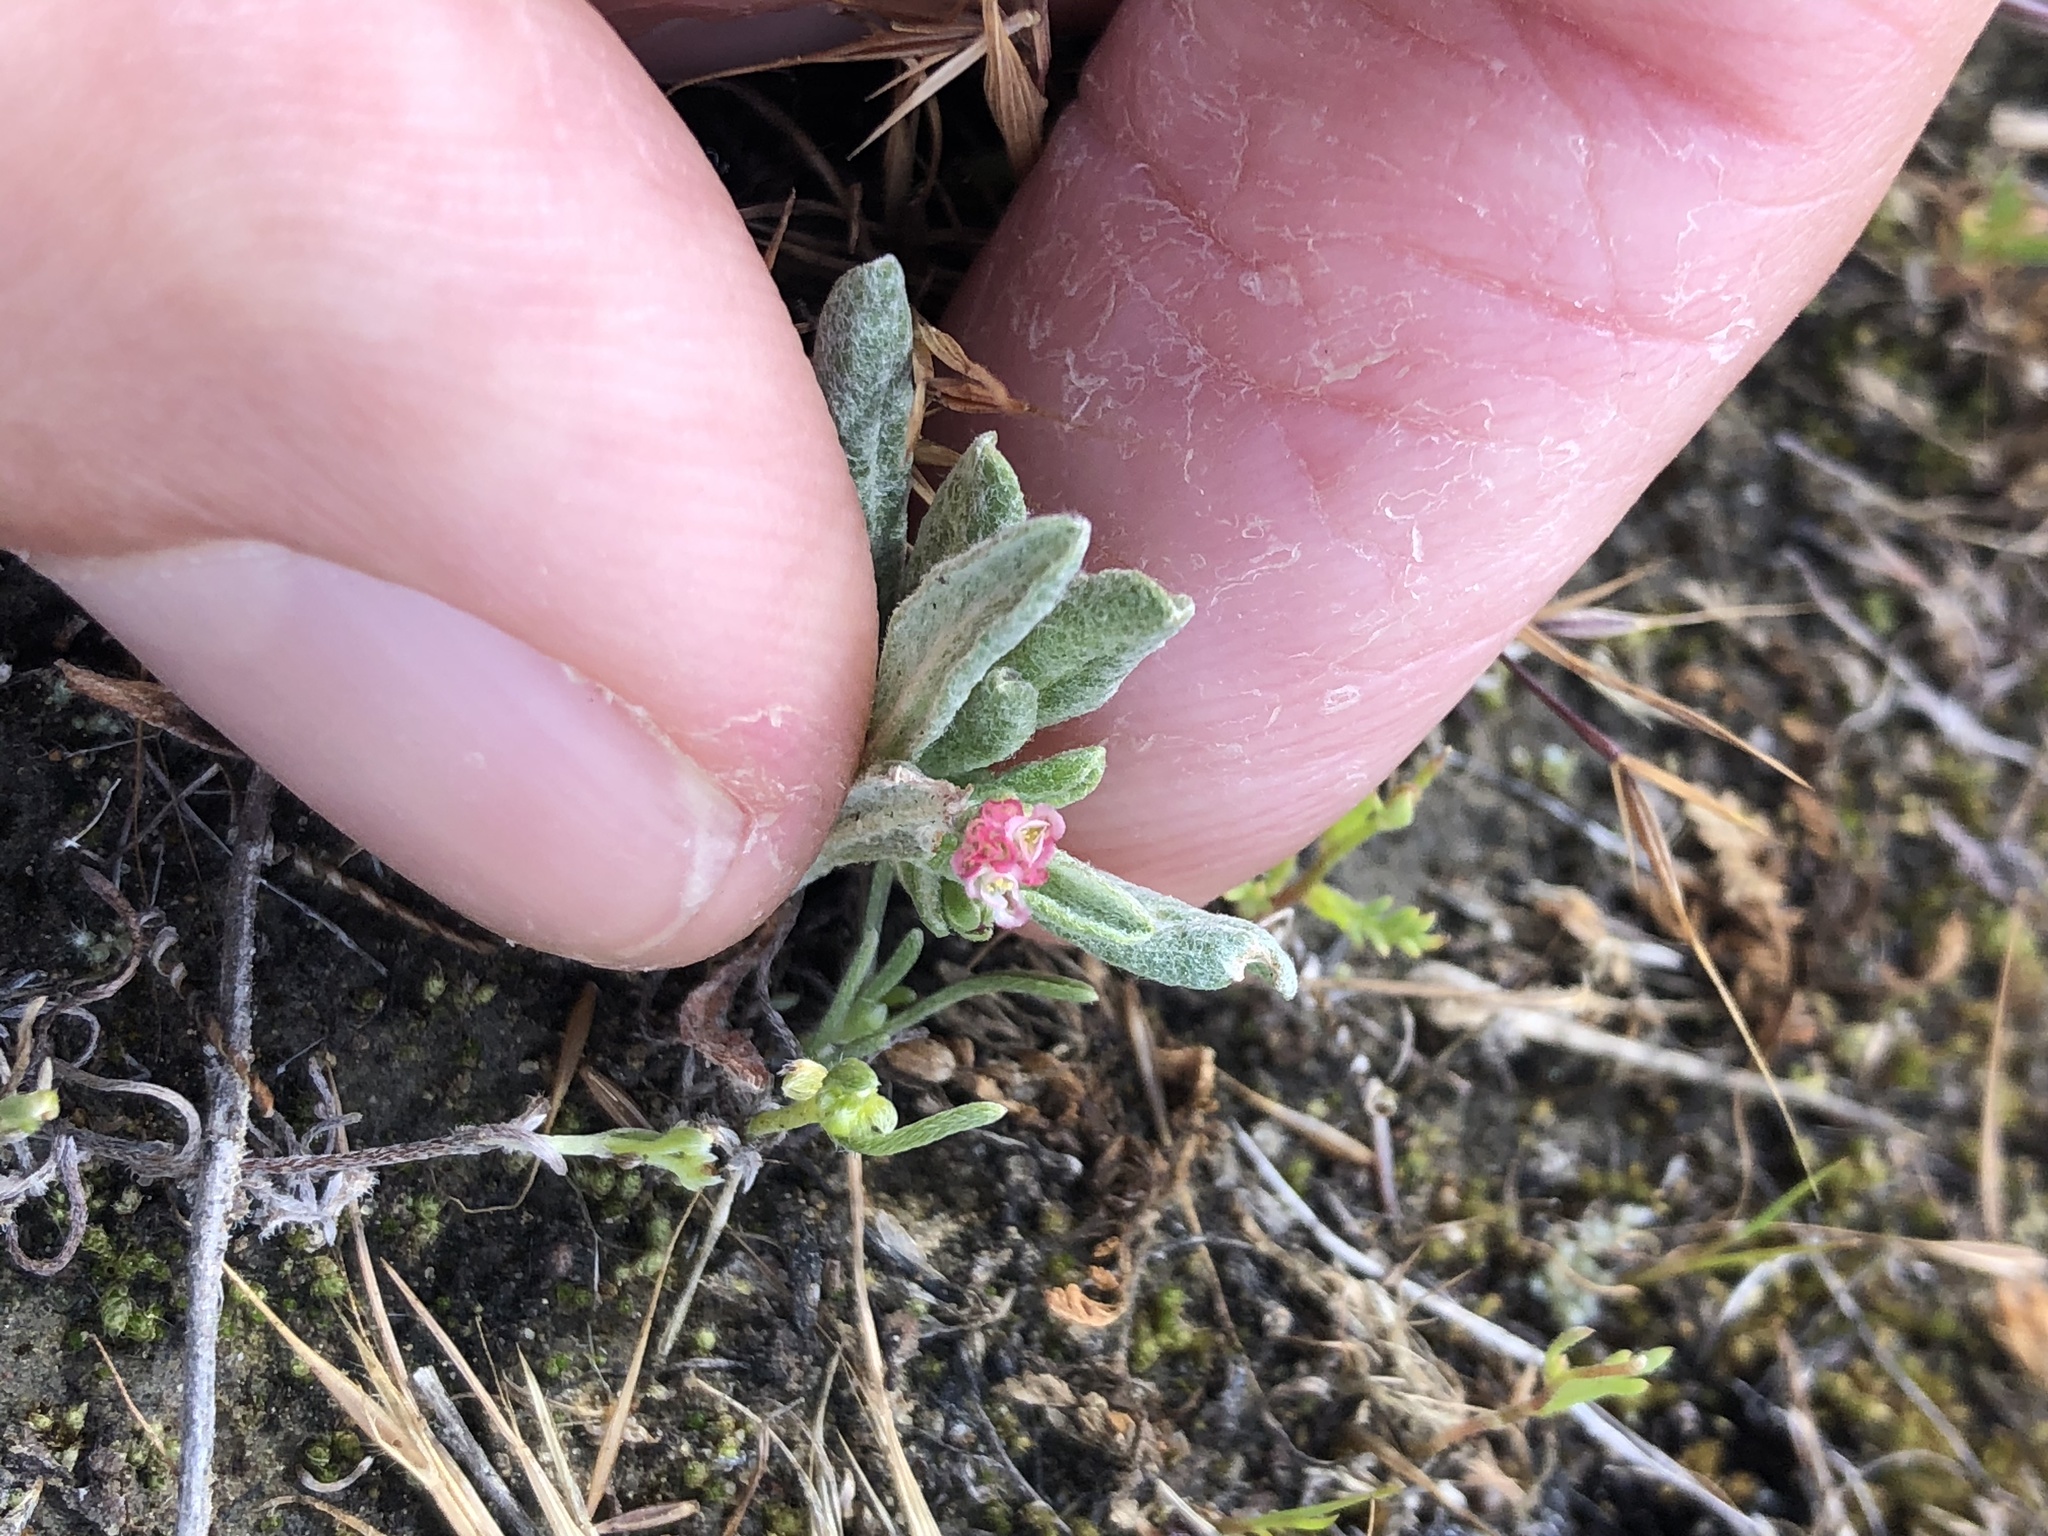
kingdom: Plantae
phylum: Tracheophyta
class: Magnoliopsida
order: Caryophyllales
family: Polygonaceae
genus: Eriogonum
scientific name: Eriogonum gracillimum
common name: Rose-and-white wild buckwheat
